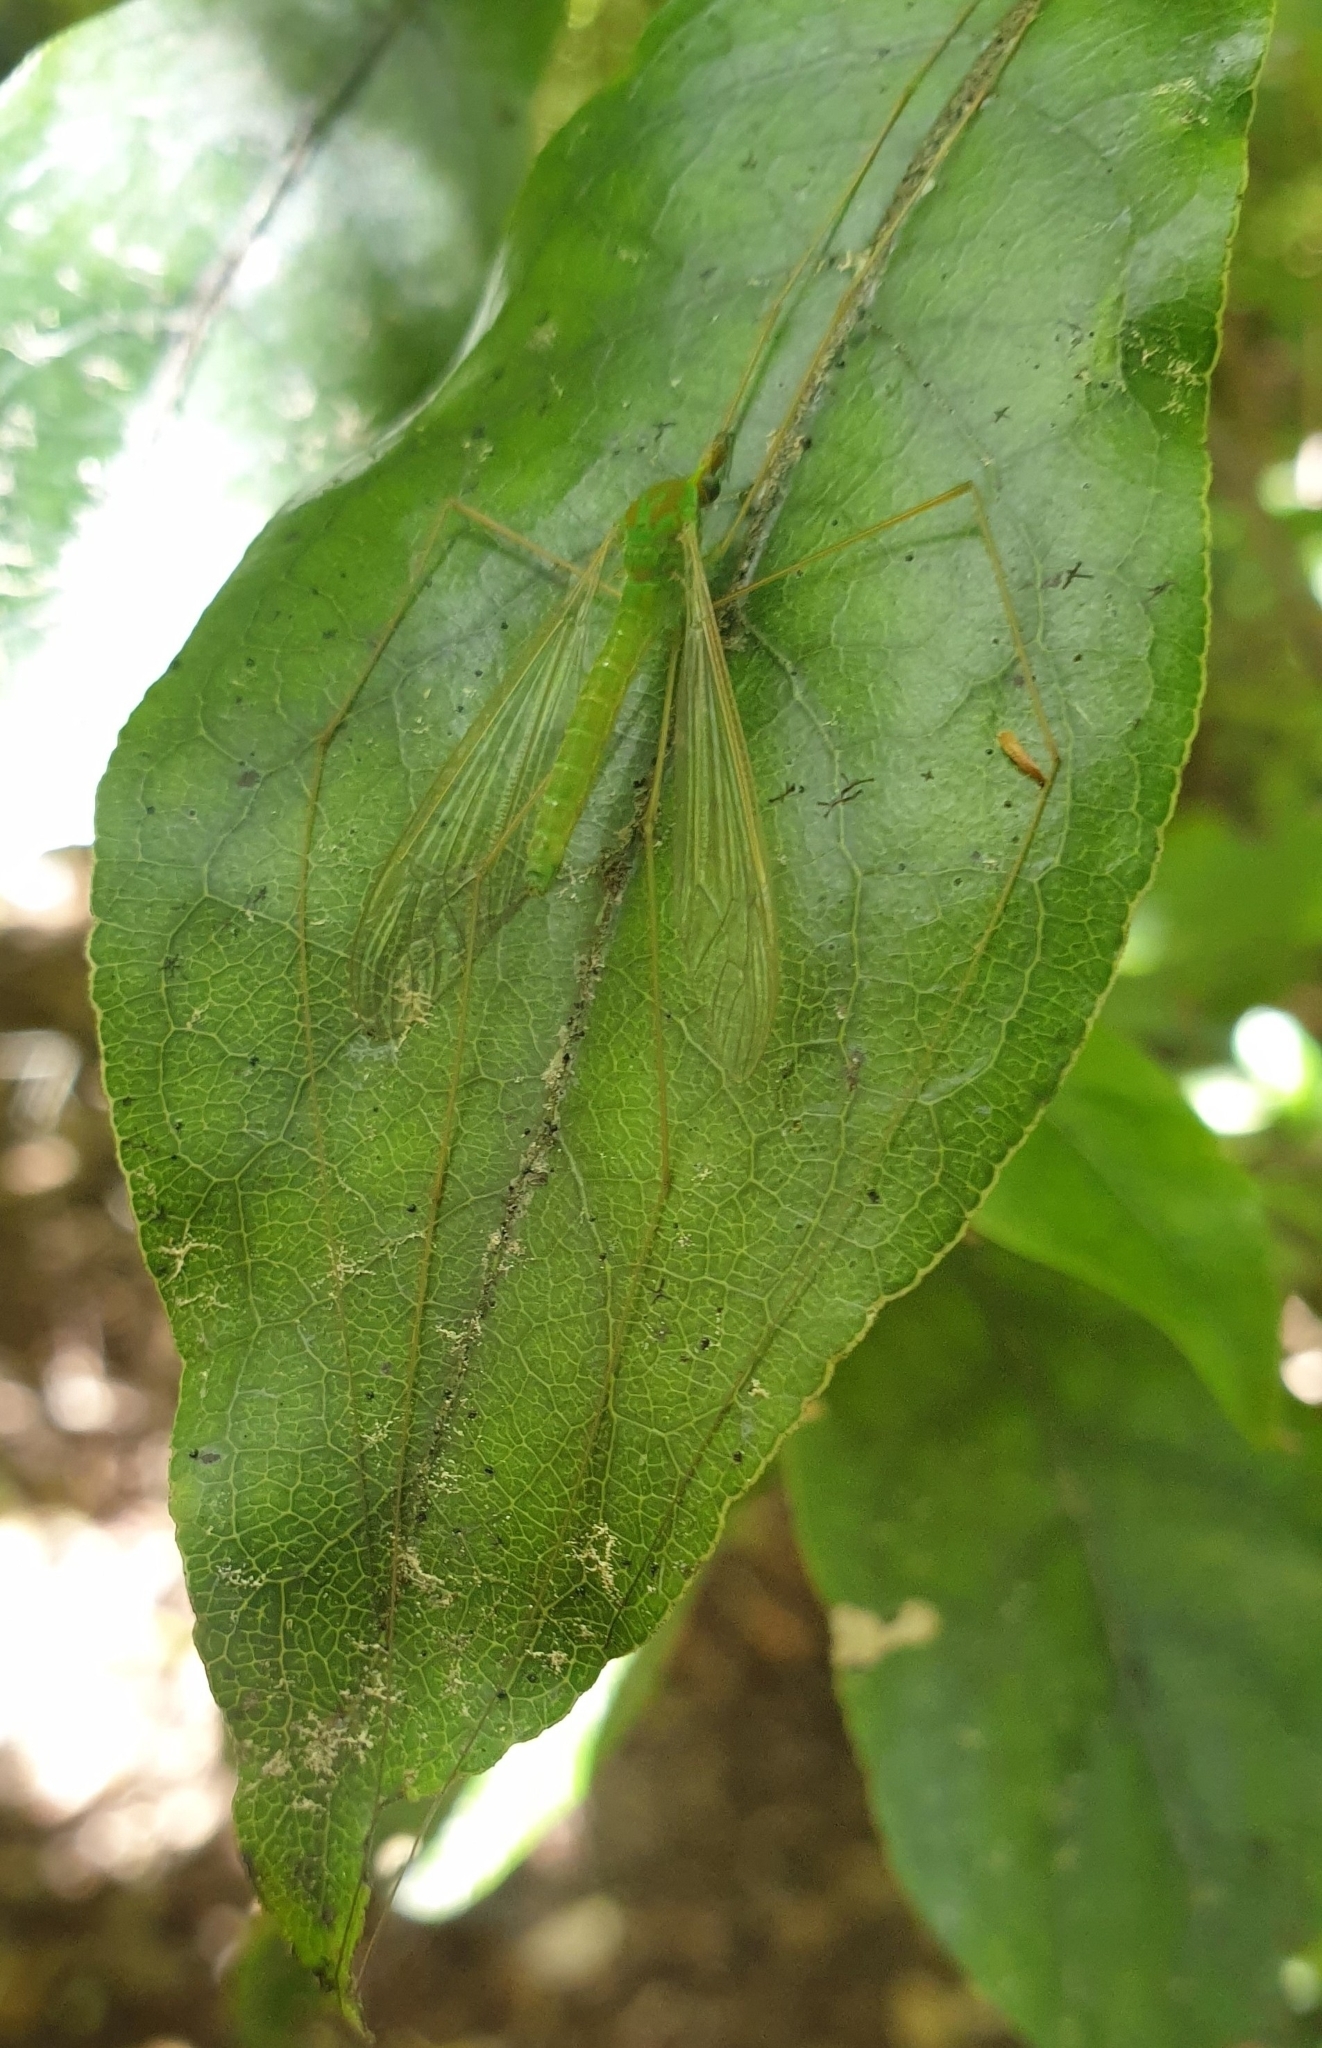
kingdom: Animalia
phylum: Arthropoda
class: Insecta
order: Diptera
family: Tipulidae
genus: Leptotarsus
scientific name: Leptotarsus virescens
